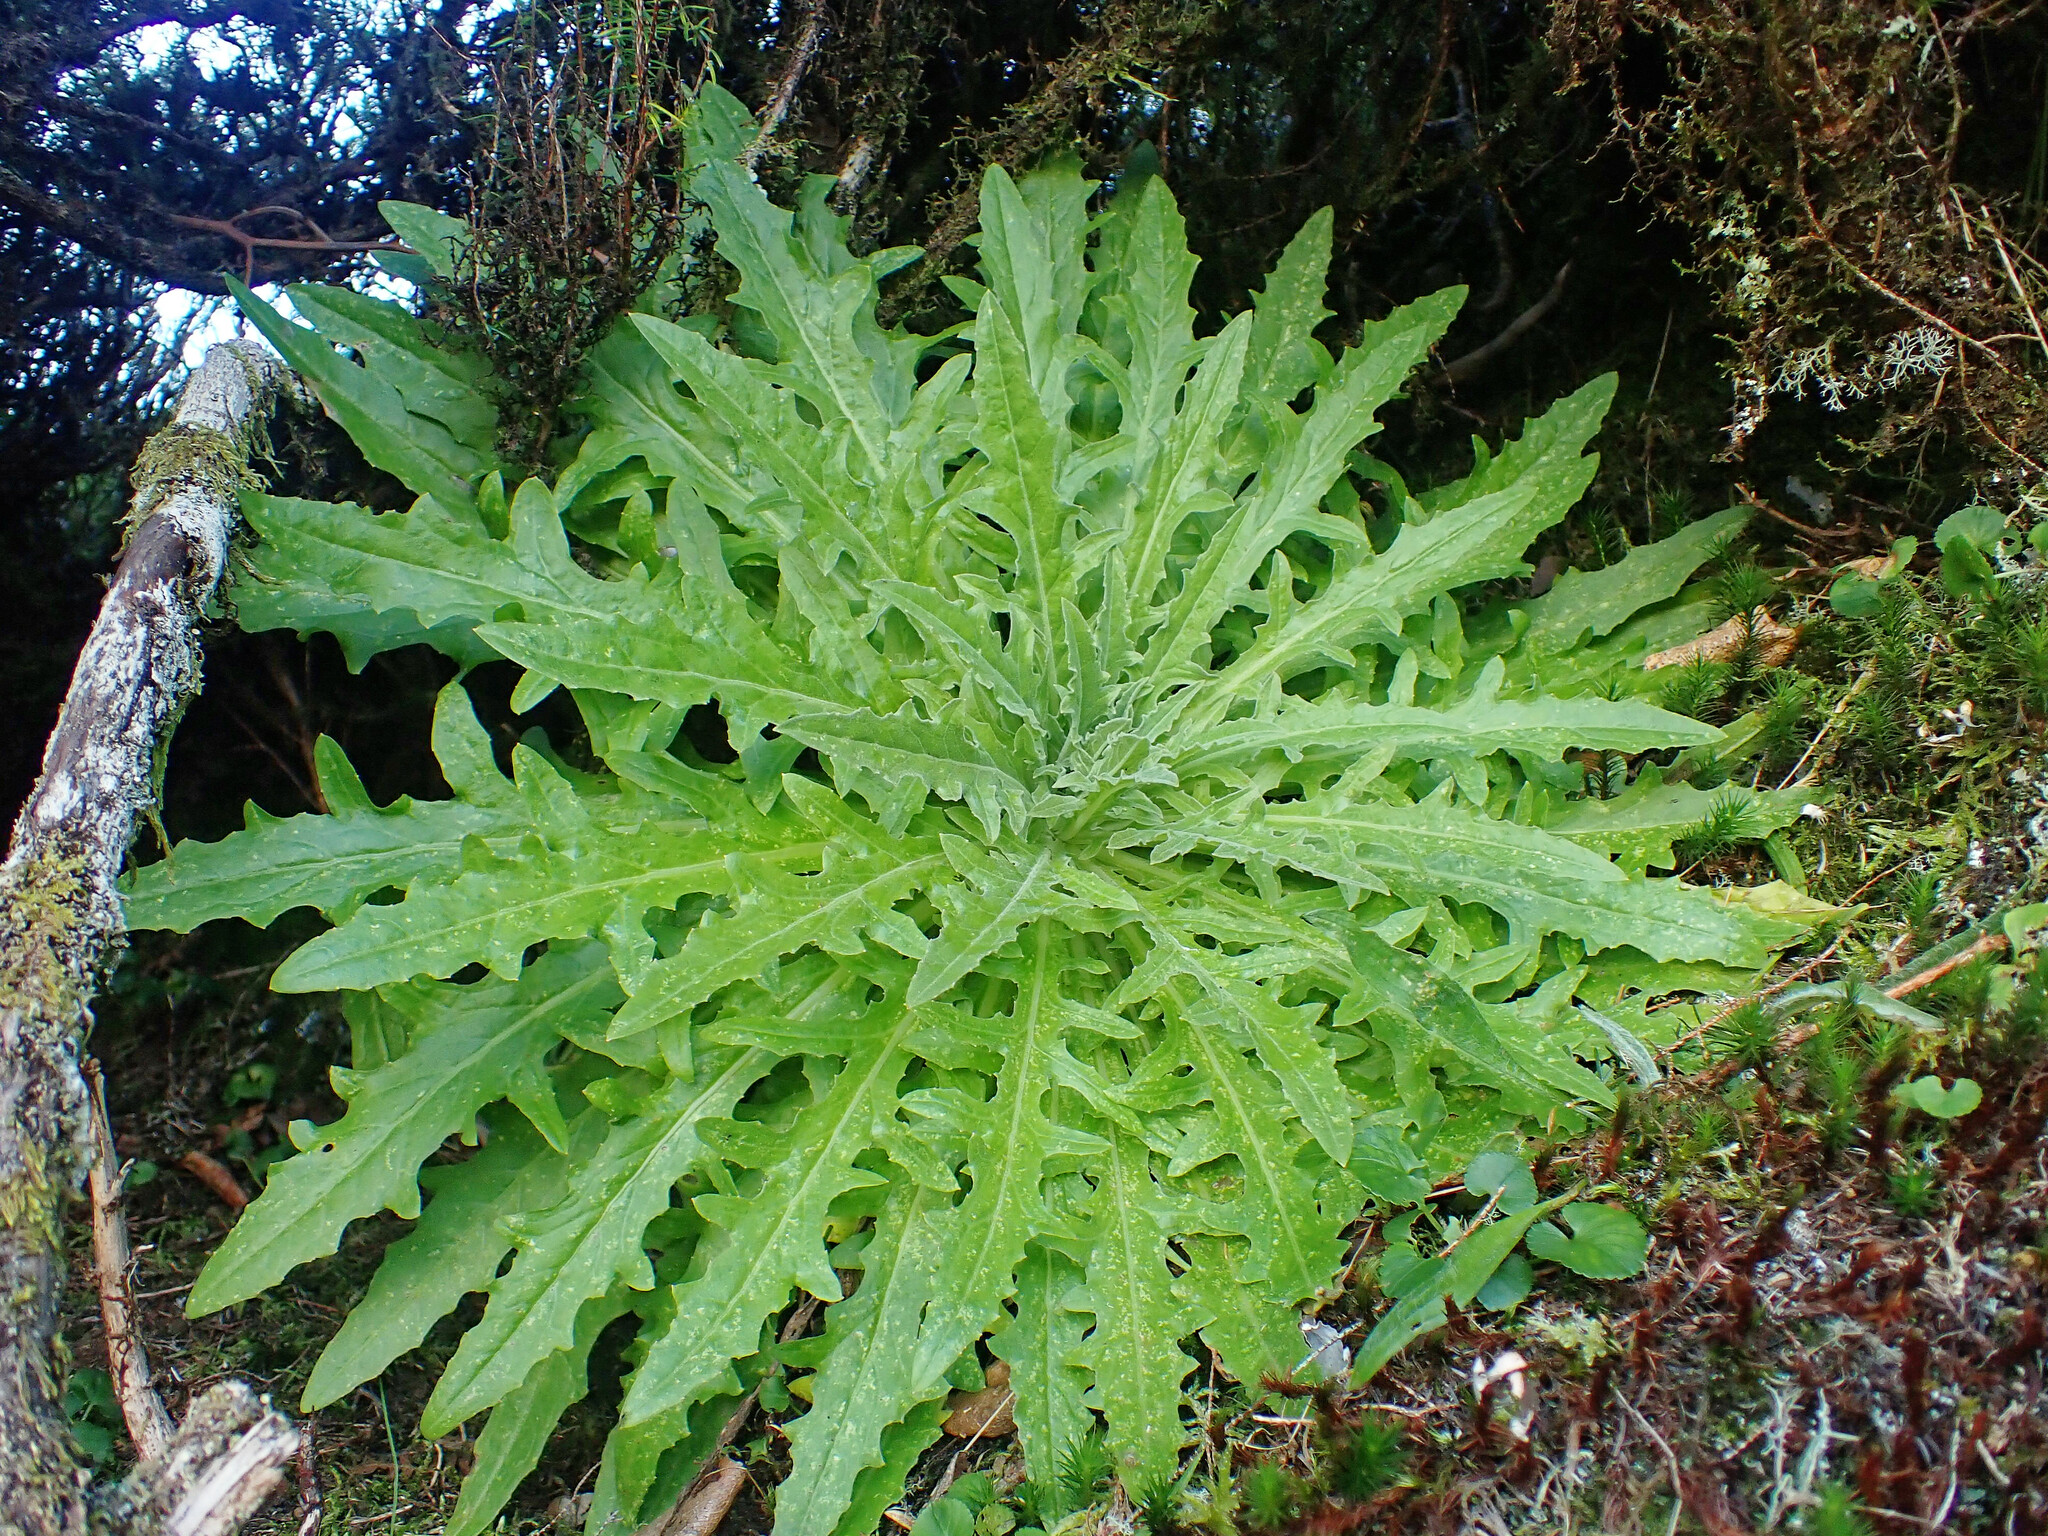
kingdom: Plantae
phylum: Tracheophyta
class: Magnoliopsida
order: Asterales
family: Asteraceae
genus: Andryala
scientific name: Andryala glandulosa
